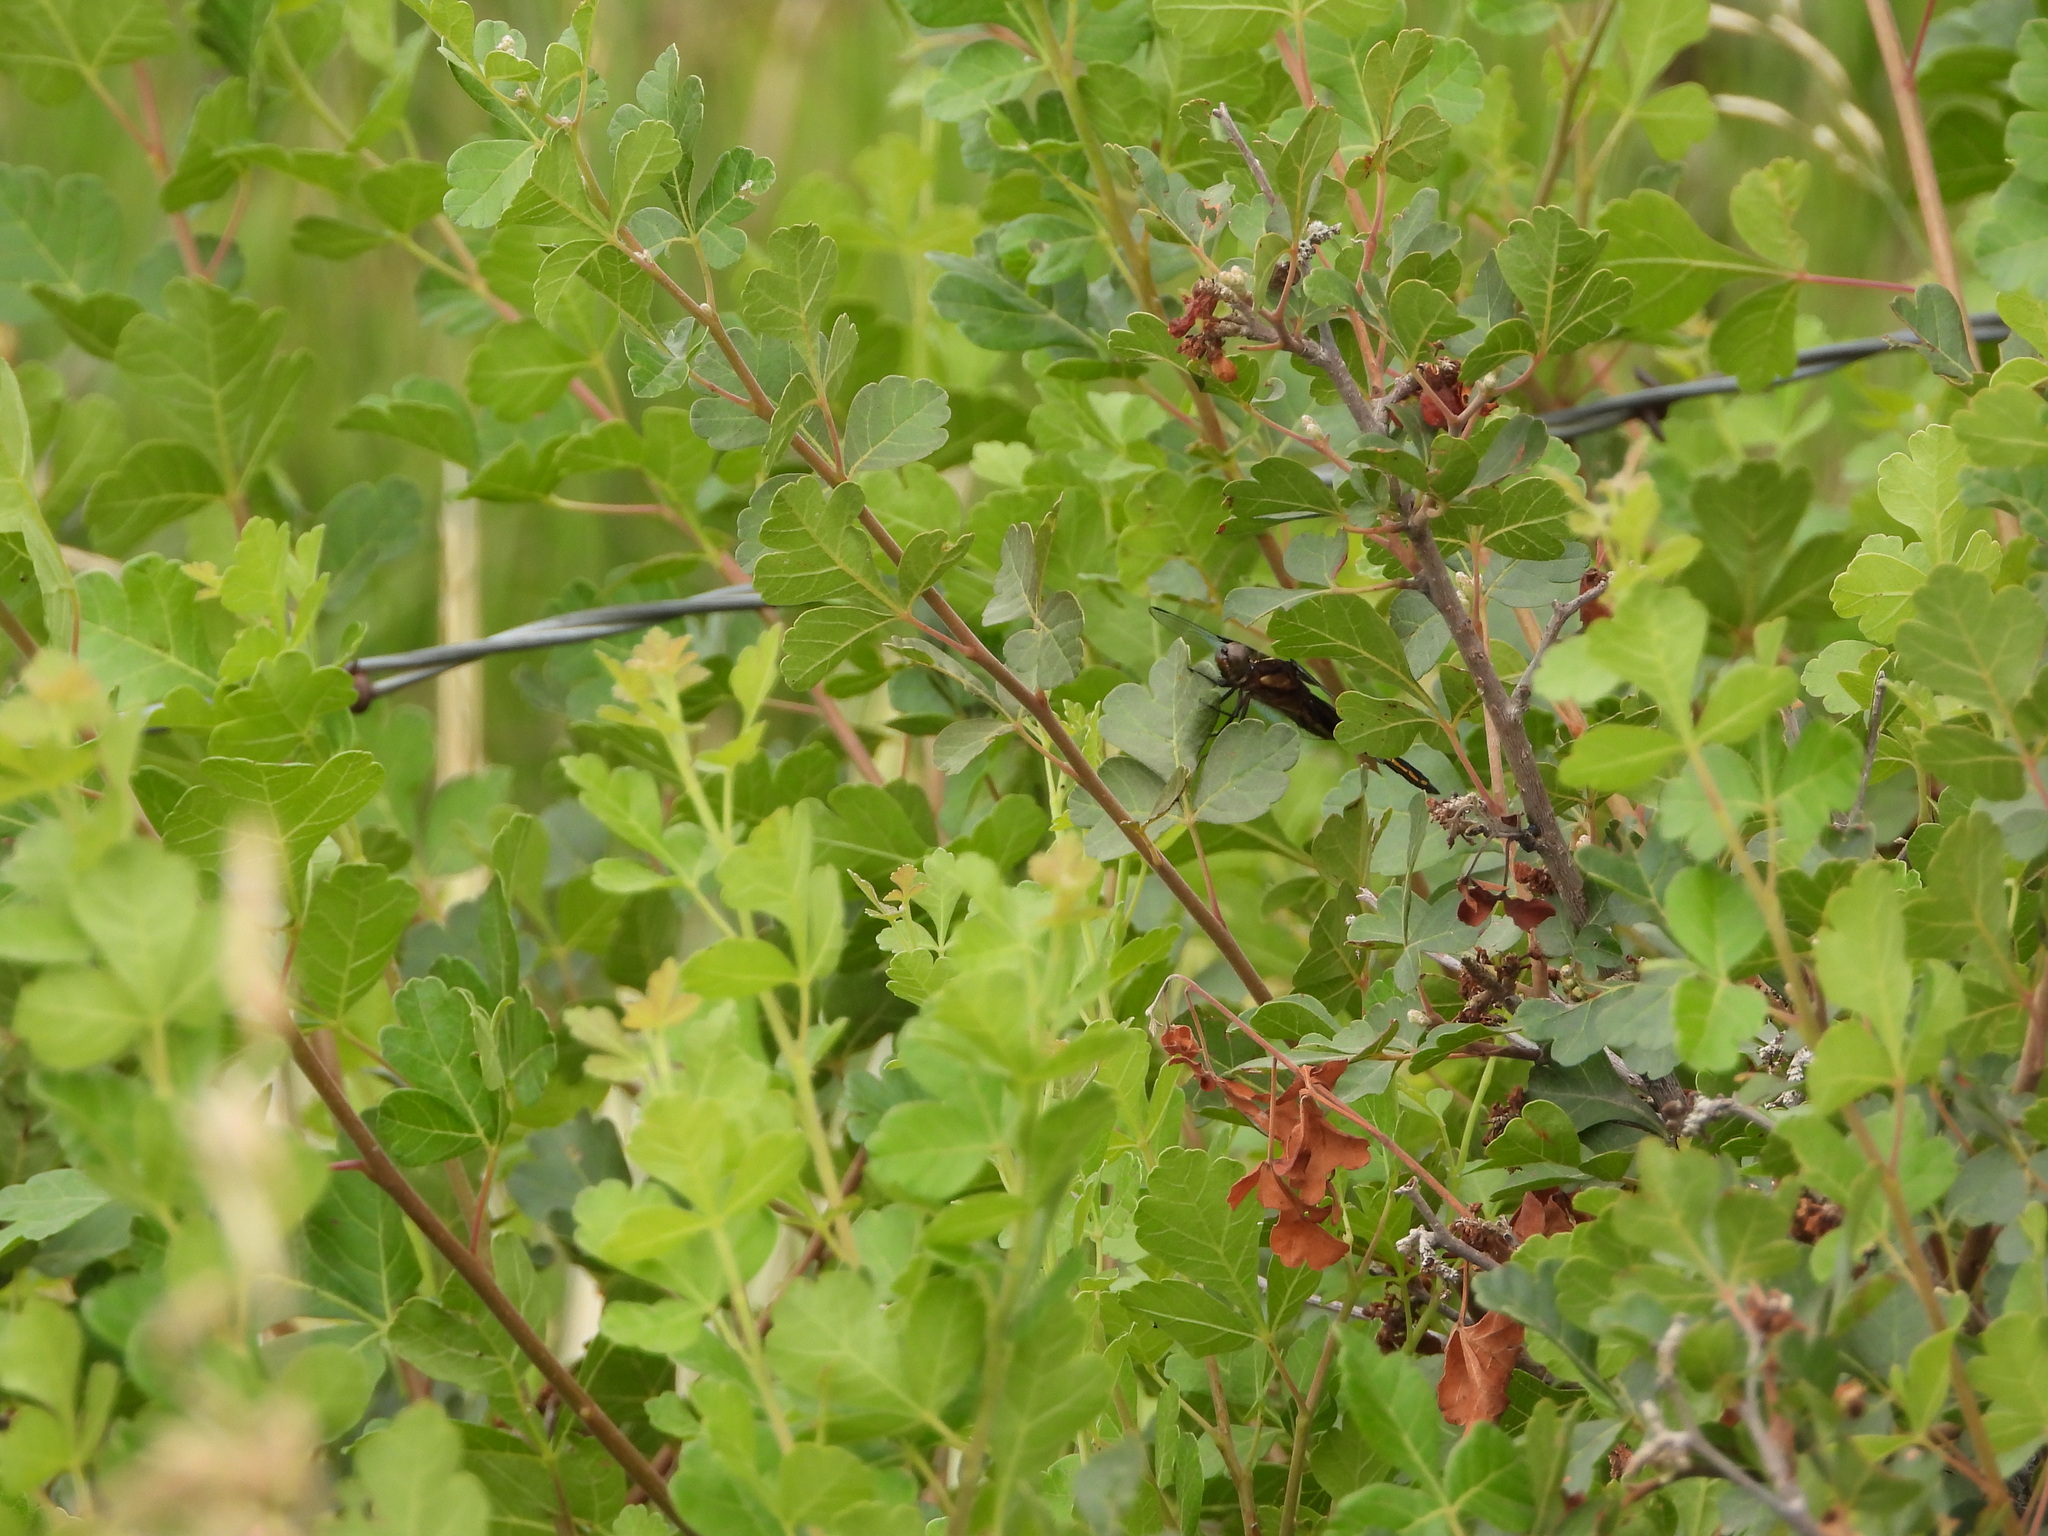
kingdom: Animalia
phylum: Arthropoda
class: Insecta
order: Odonata
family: Libellulidae
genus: Libellula
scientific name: Libellula luctuosa
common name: Widow skimmer
